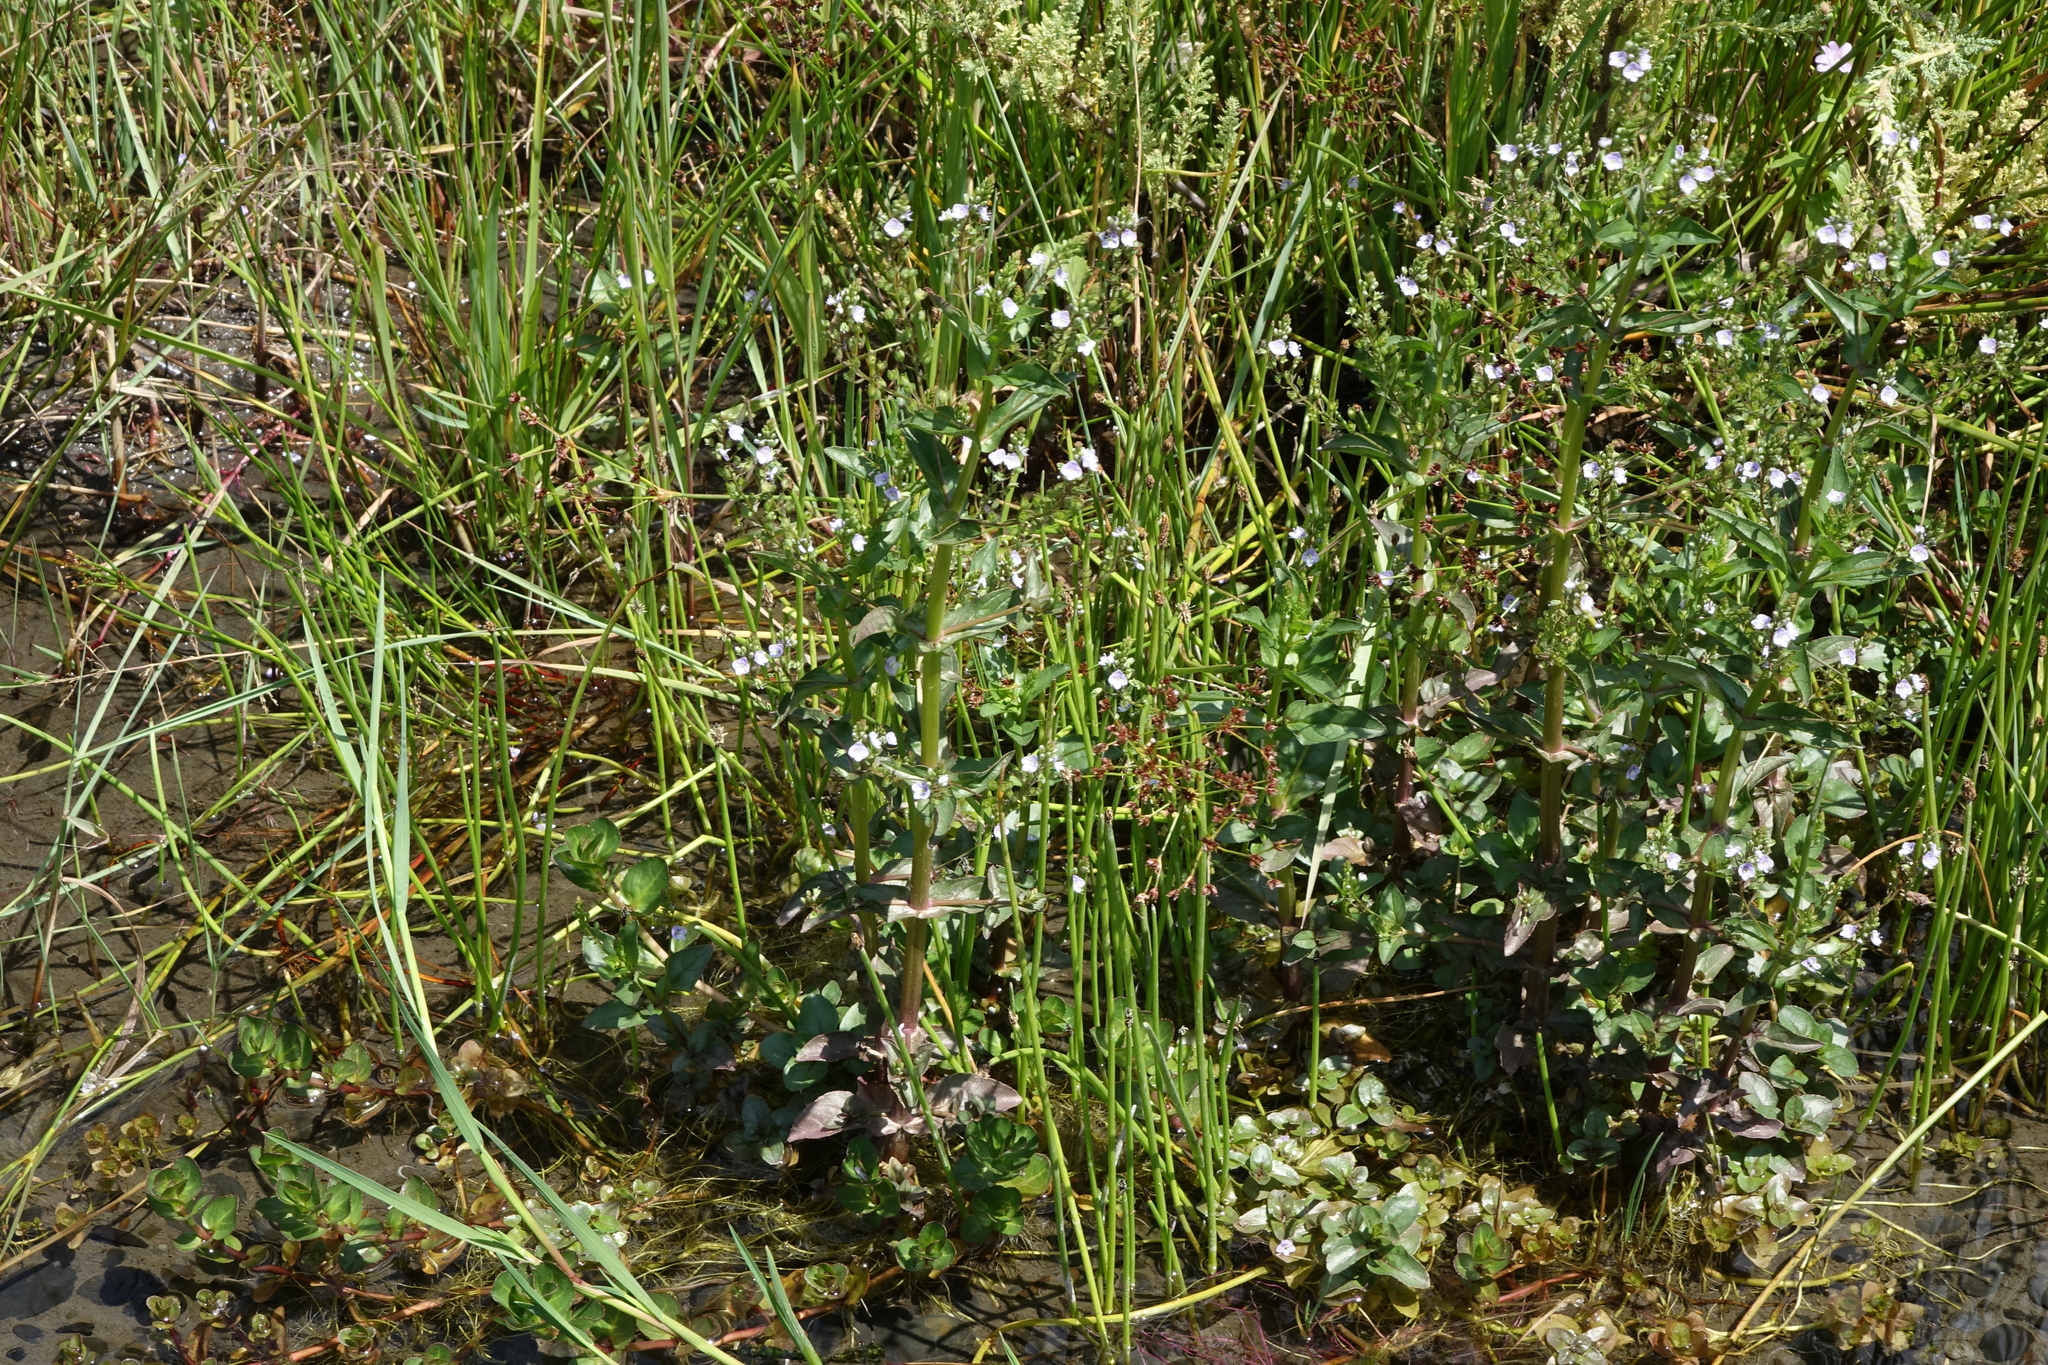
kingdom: Plantae
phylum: Tracheophyta
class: Magnoliopsida
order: Lamiales
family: Plantaginaceae
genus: Veronica
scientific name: Veronica anagallis-aquatica
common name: Water speedwell
